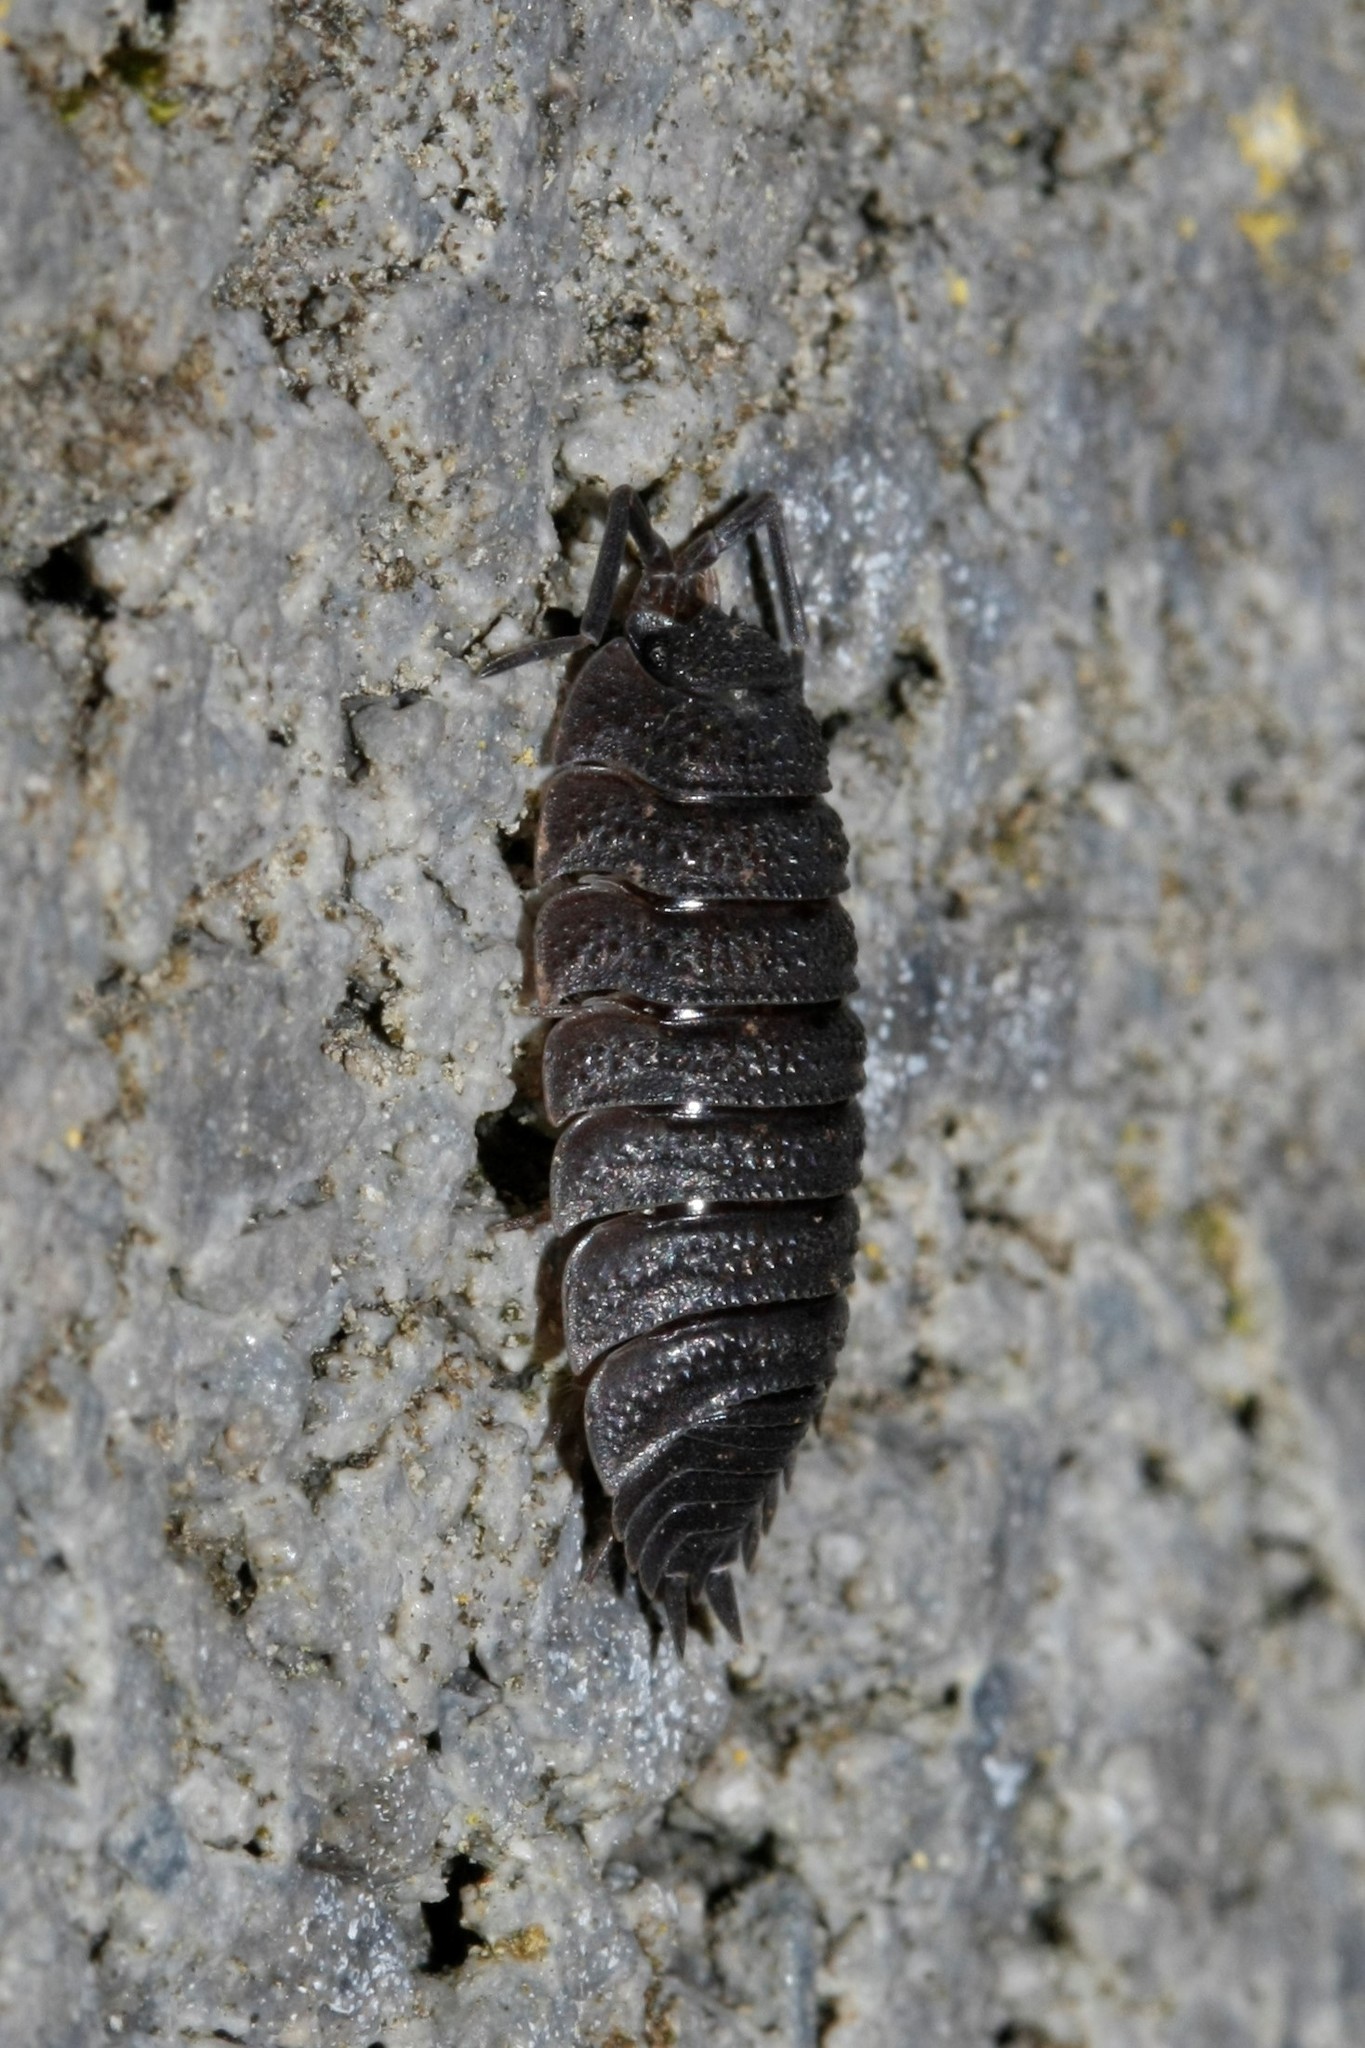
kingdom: Animalia
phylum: Arthropoda
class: Malacostraca
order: Isopoda
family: Porcellionidae
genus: Porcellio
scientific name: Porcellio scaber
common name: Common rough woodlouse
